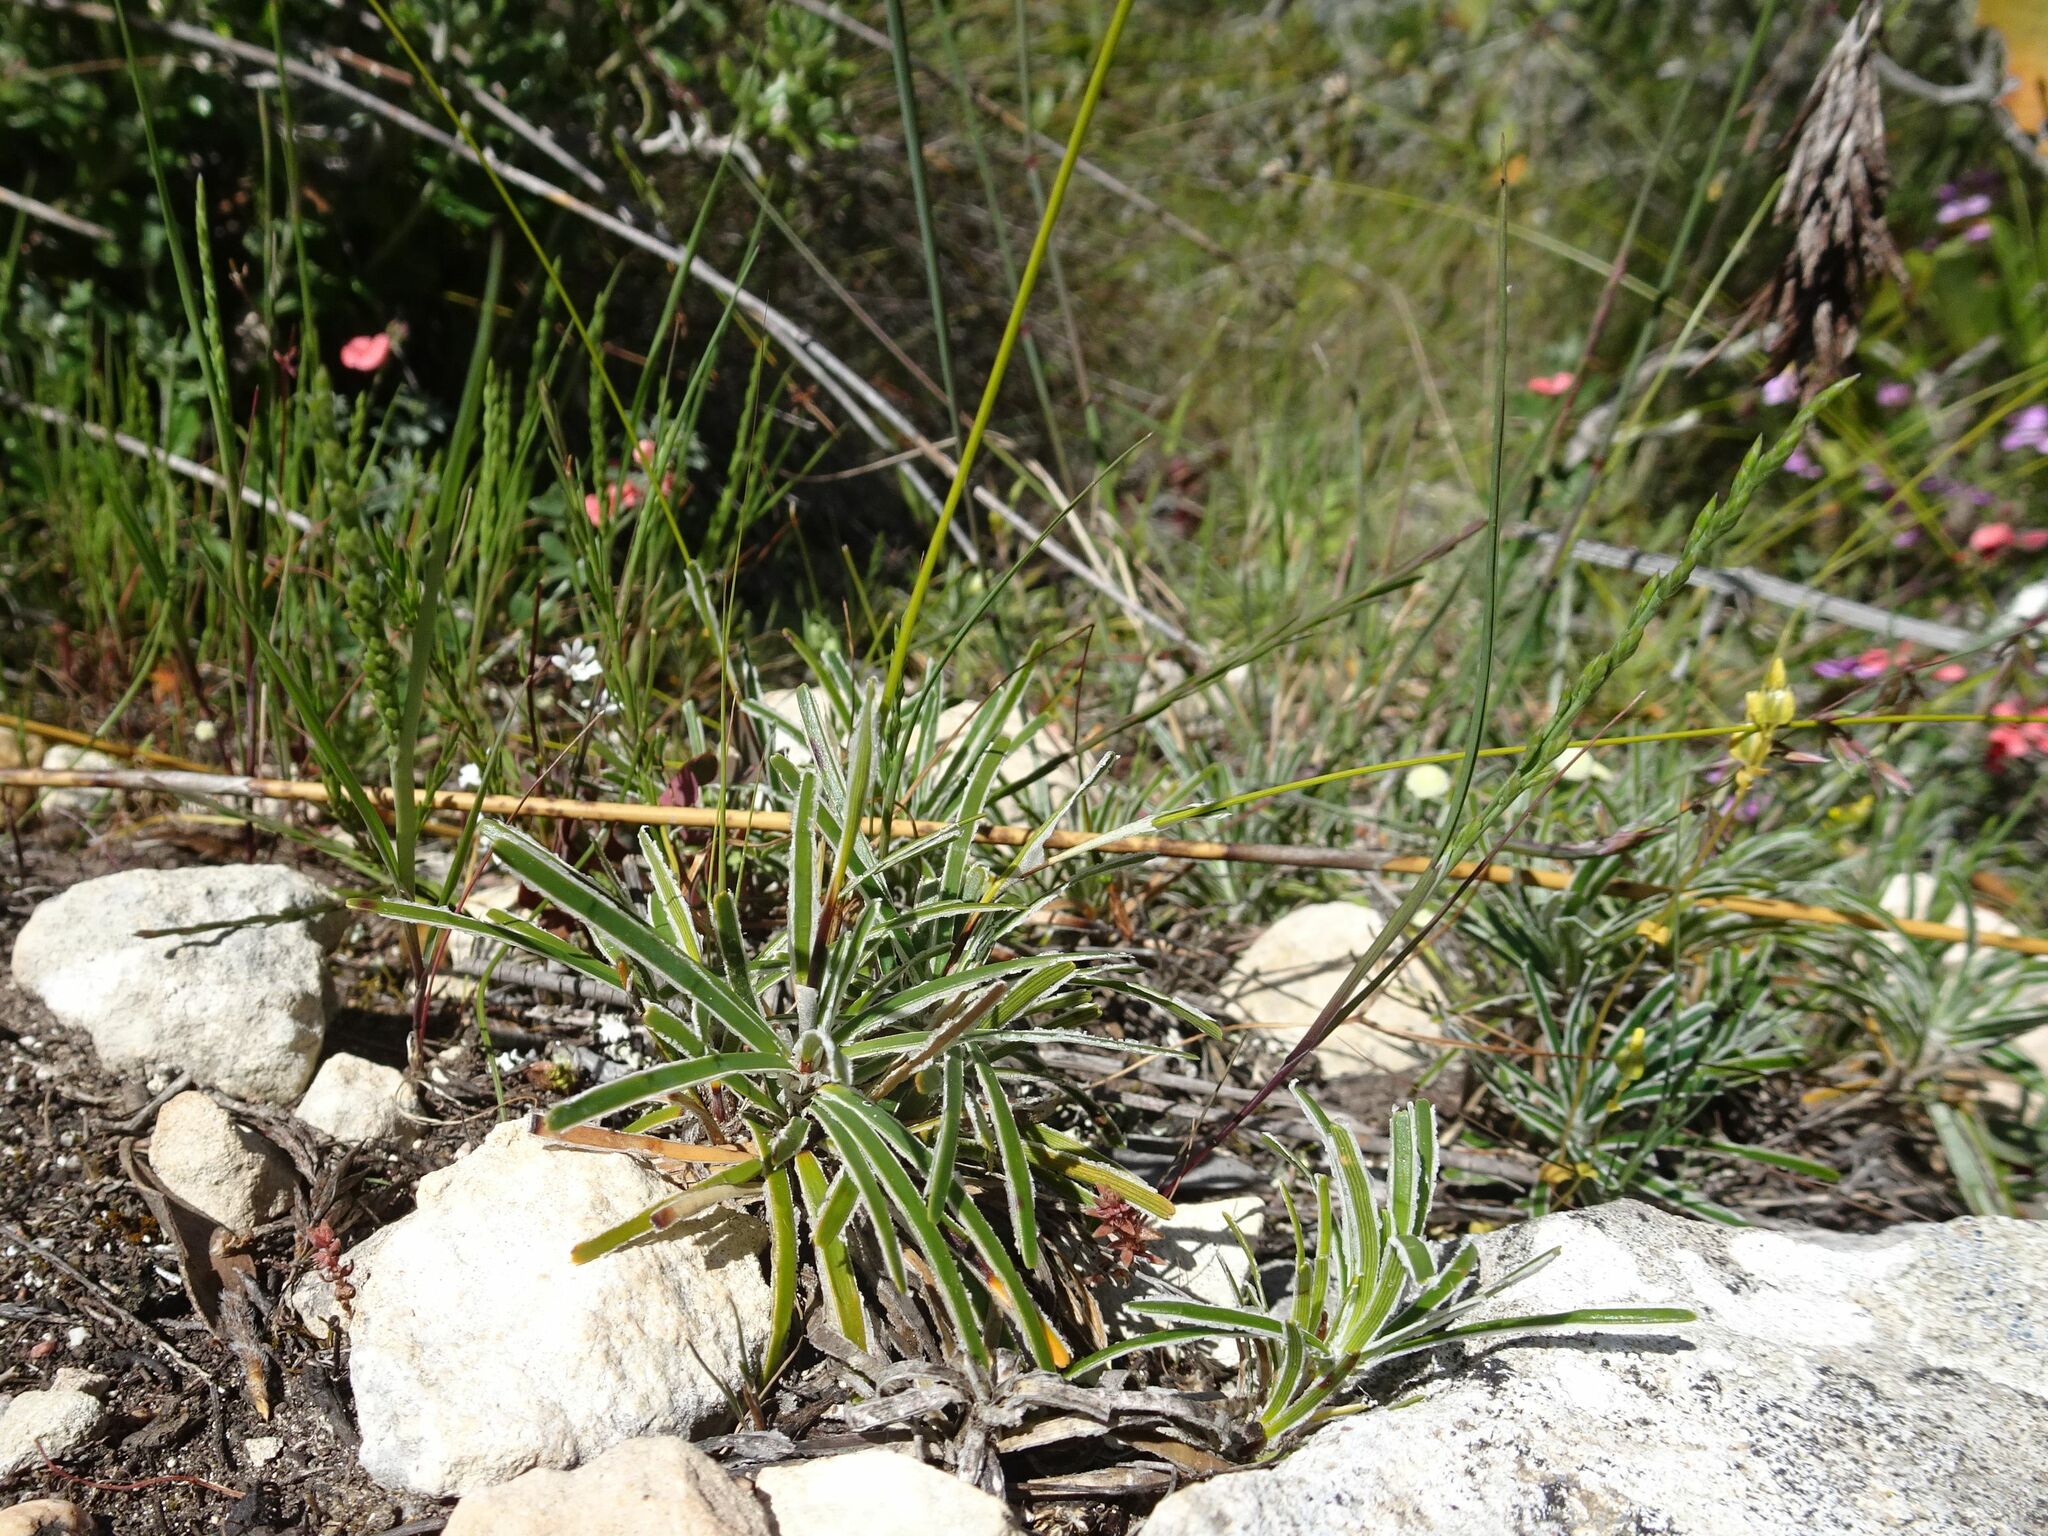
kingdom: Plantae
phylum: Tracheophyta
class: Liliopsida
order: Poales
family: Cyperaceae
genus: Ficinia
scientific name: Ficinia truncata
